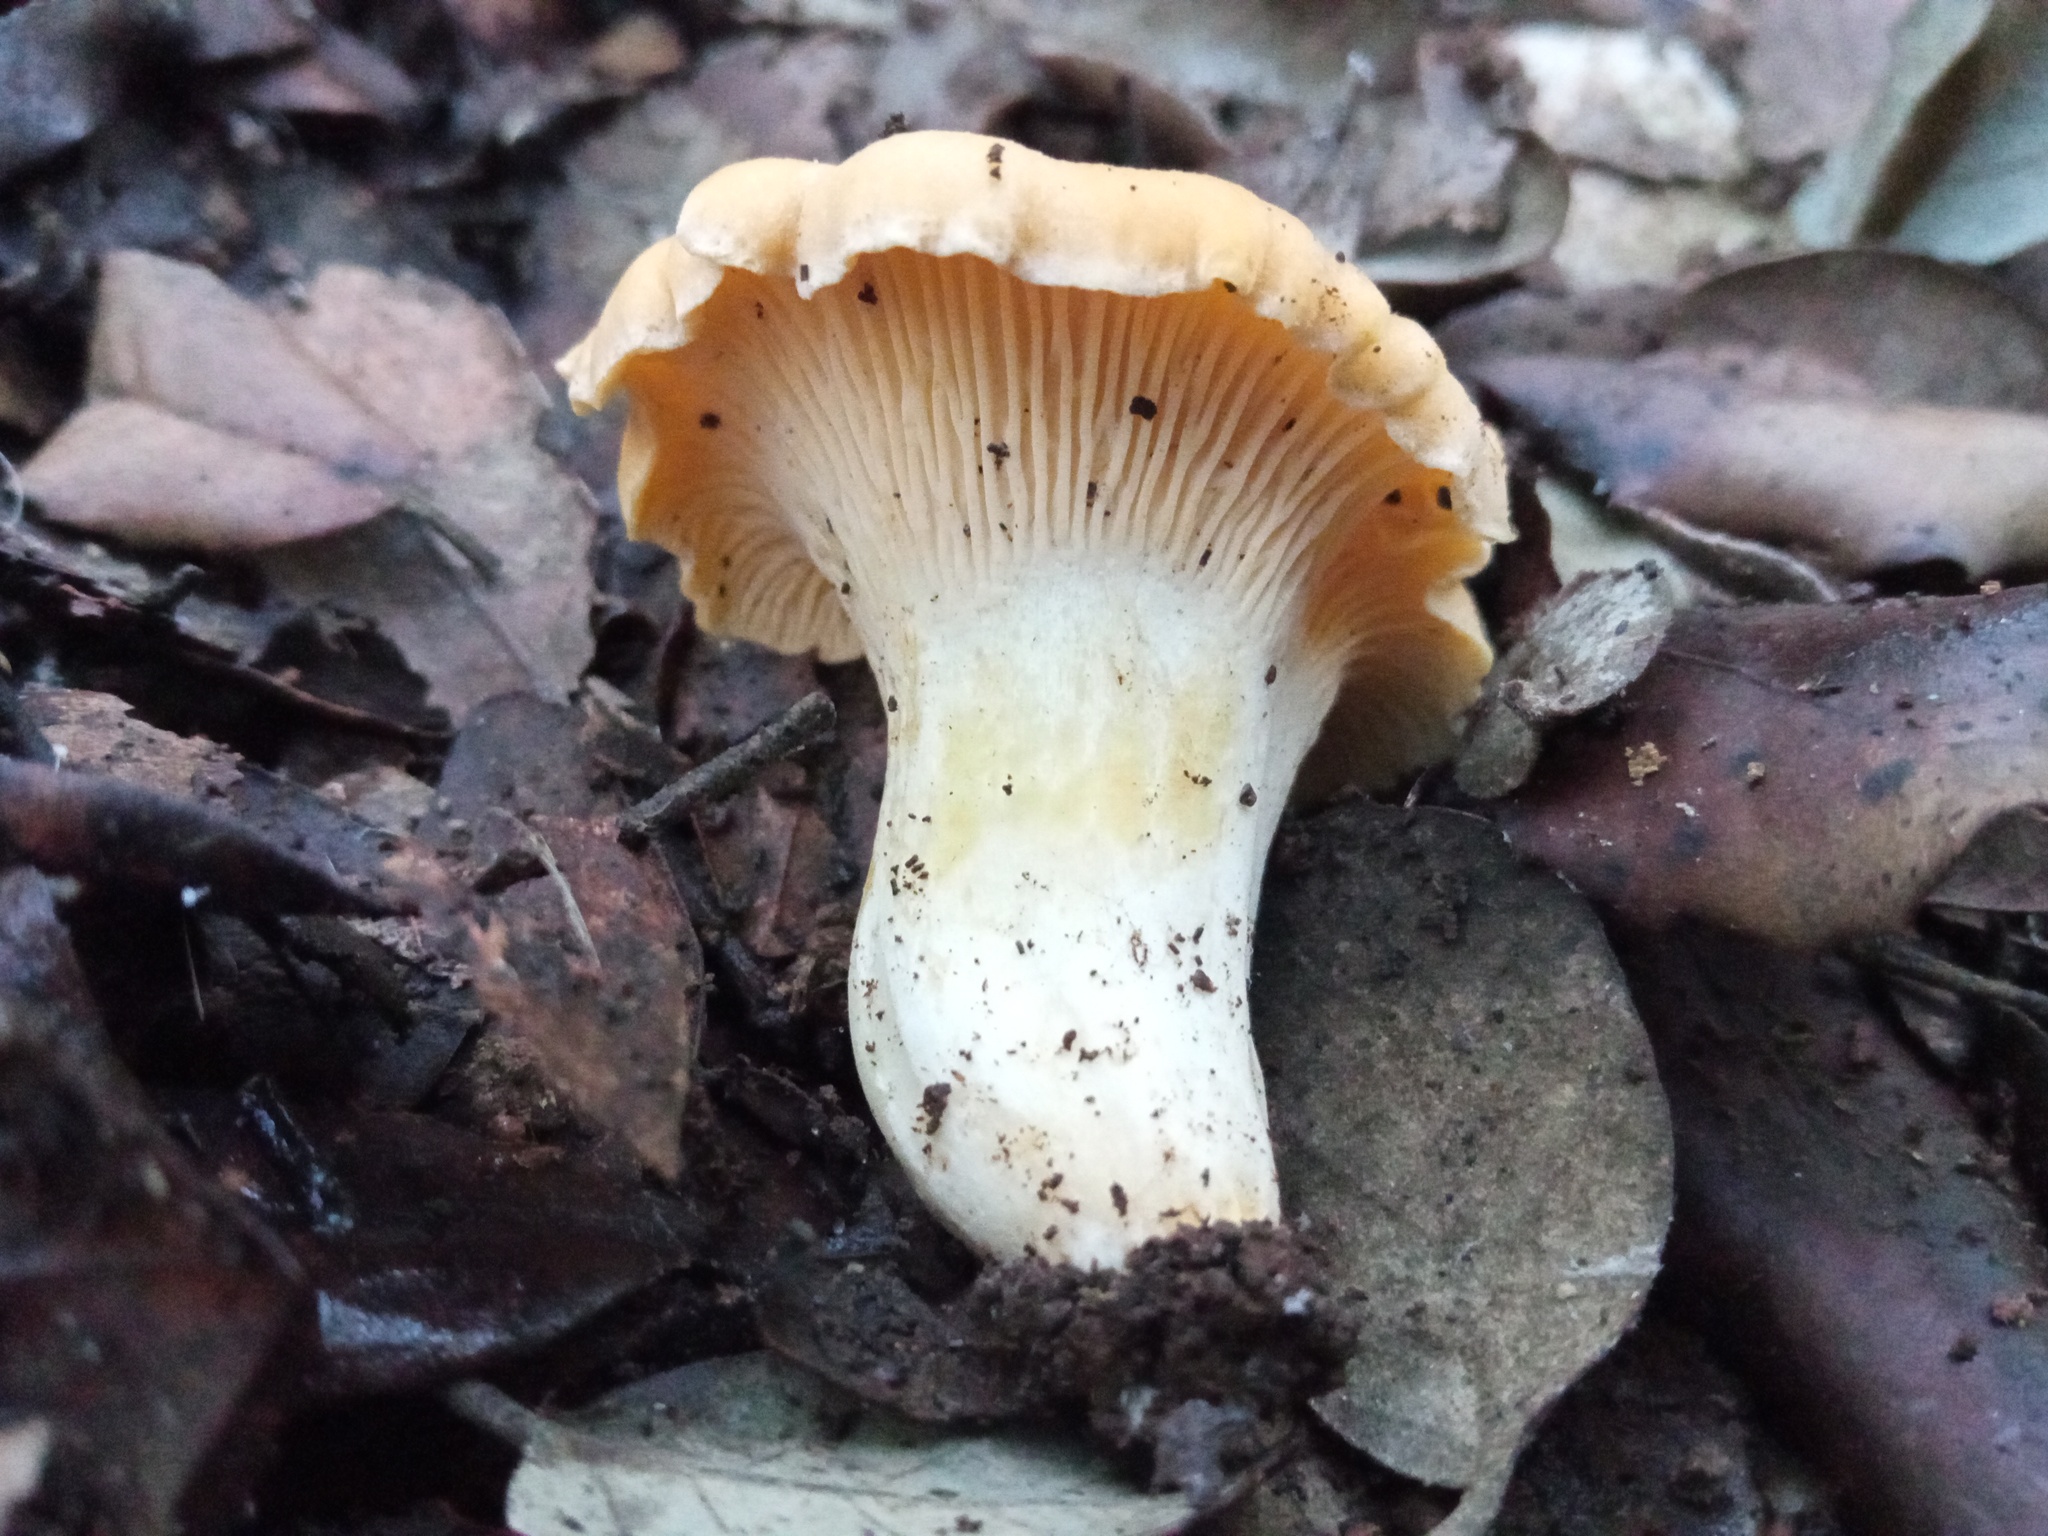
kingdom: Fungi
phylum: Basidiomycota
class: Agaricomycetes
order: Cantharellales
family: Hydnaceae
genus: Cantharellus
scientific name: Cantharellus pallens
